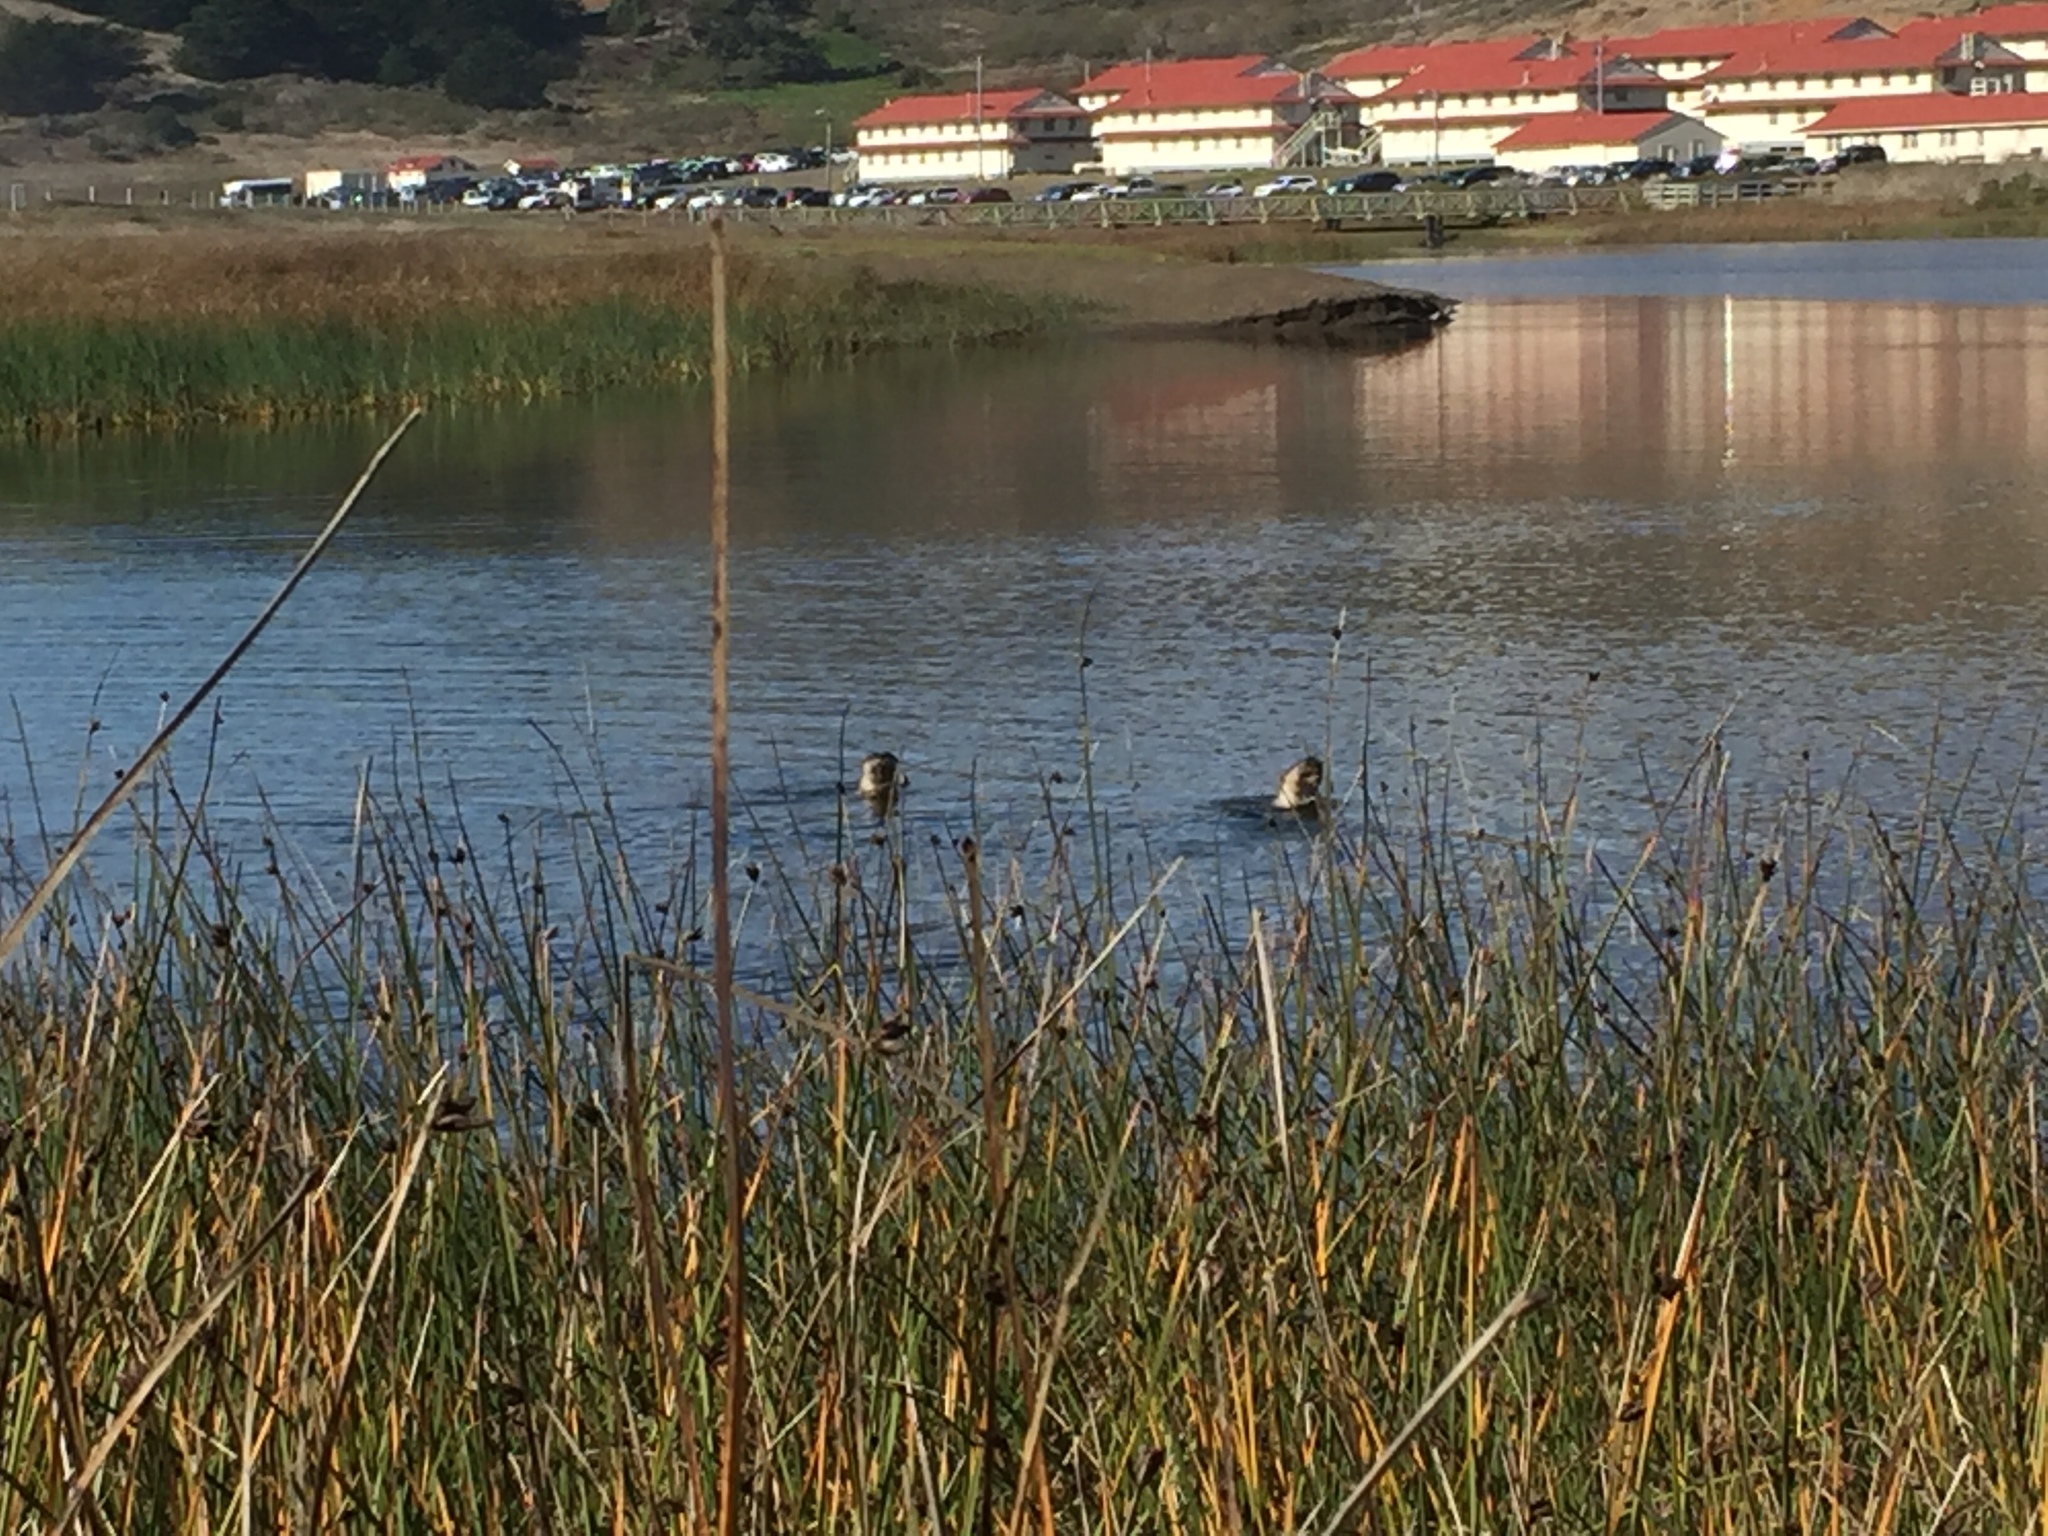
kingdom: Animalia
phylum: Chordata
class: Mammalia
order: Carnivora
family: Mustelidae
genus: Lontra
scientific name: Lontra canadensis
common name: North american river otter
